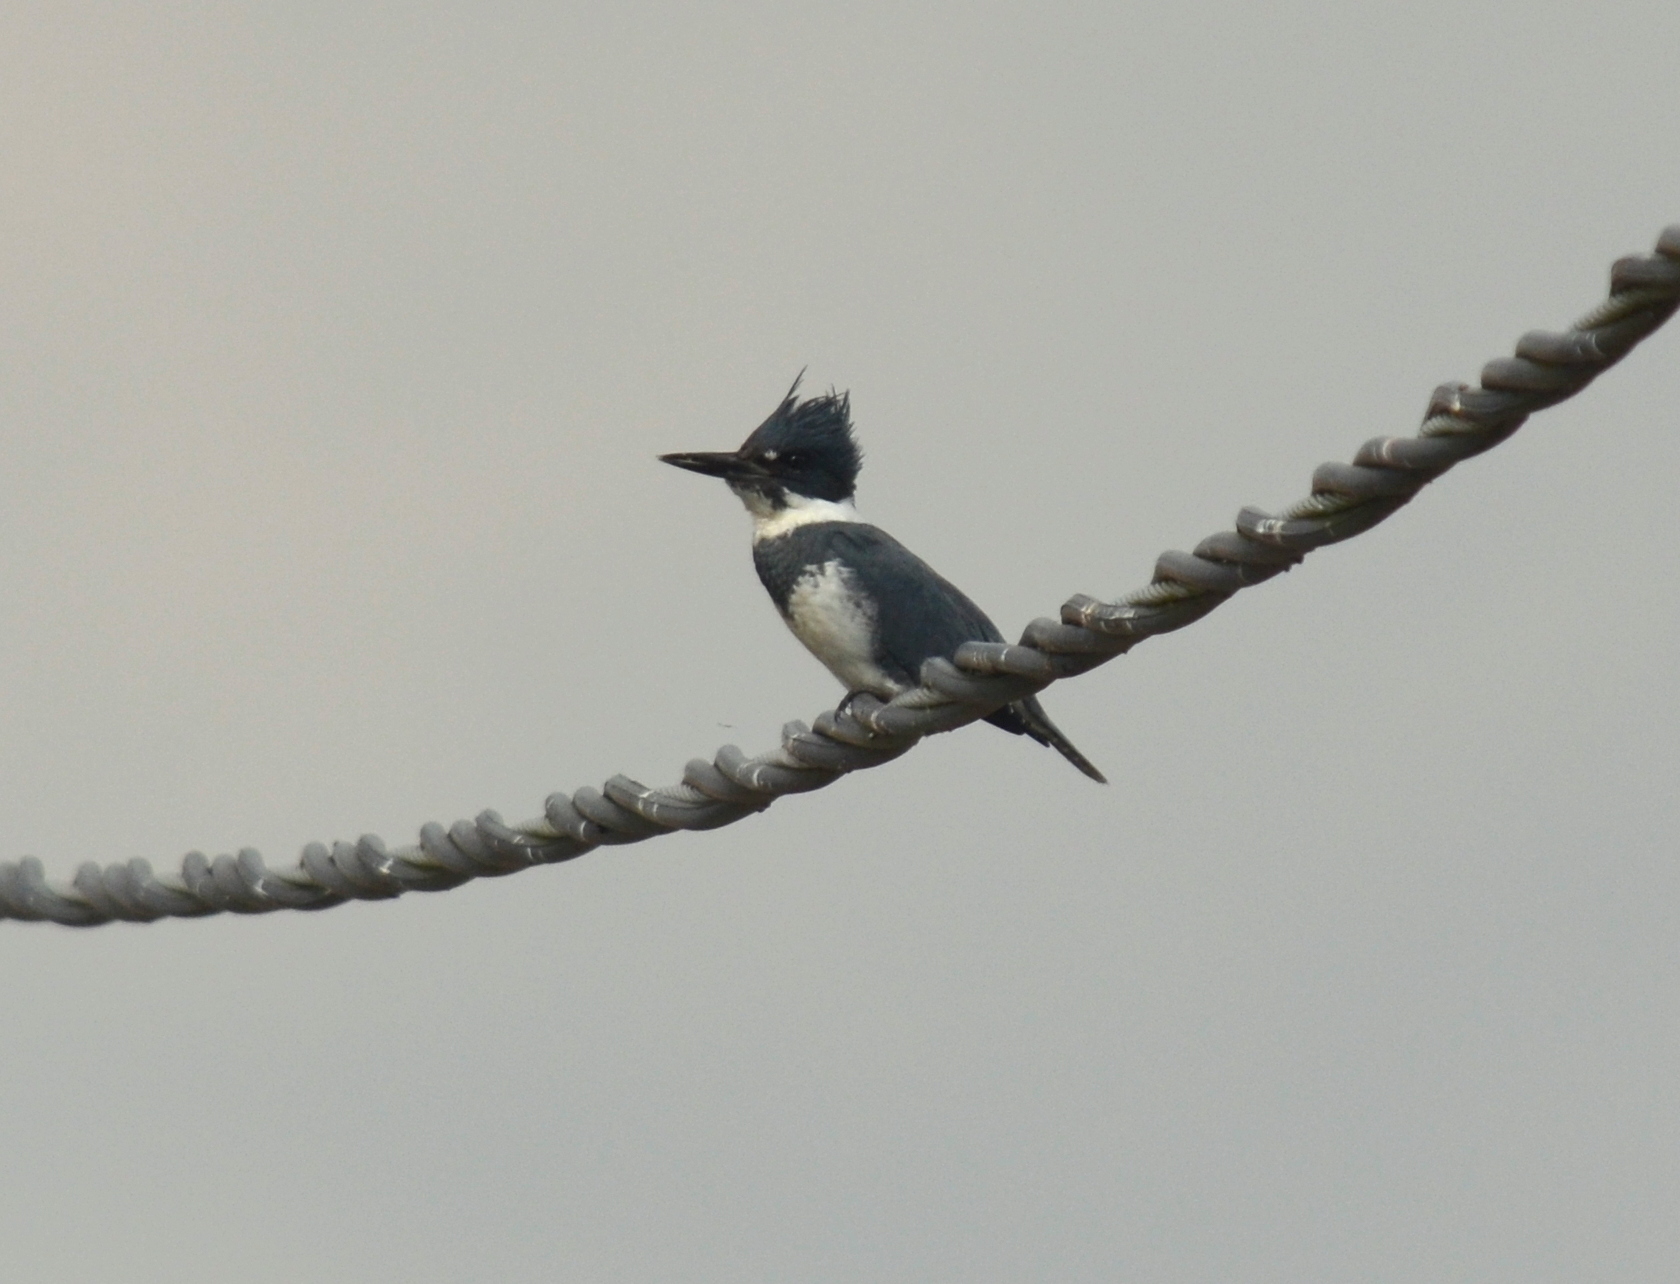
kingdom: Animalia
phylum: Chordata
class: Aves
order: Coraciiformes
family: Alcedinidae
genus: Megaceryle
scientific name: Megaceryle alcyon
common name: Belted kingfisher
